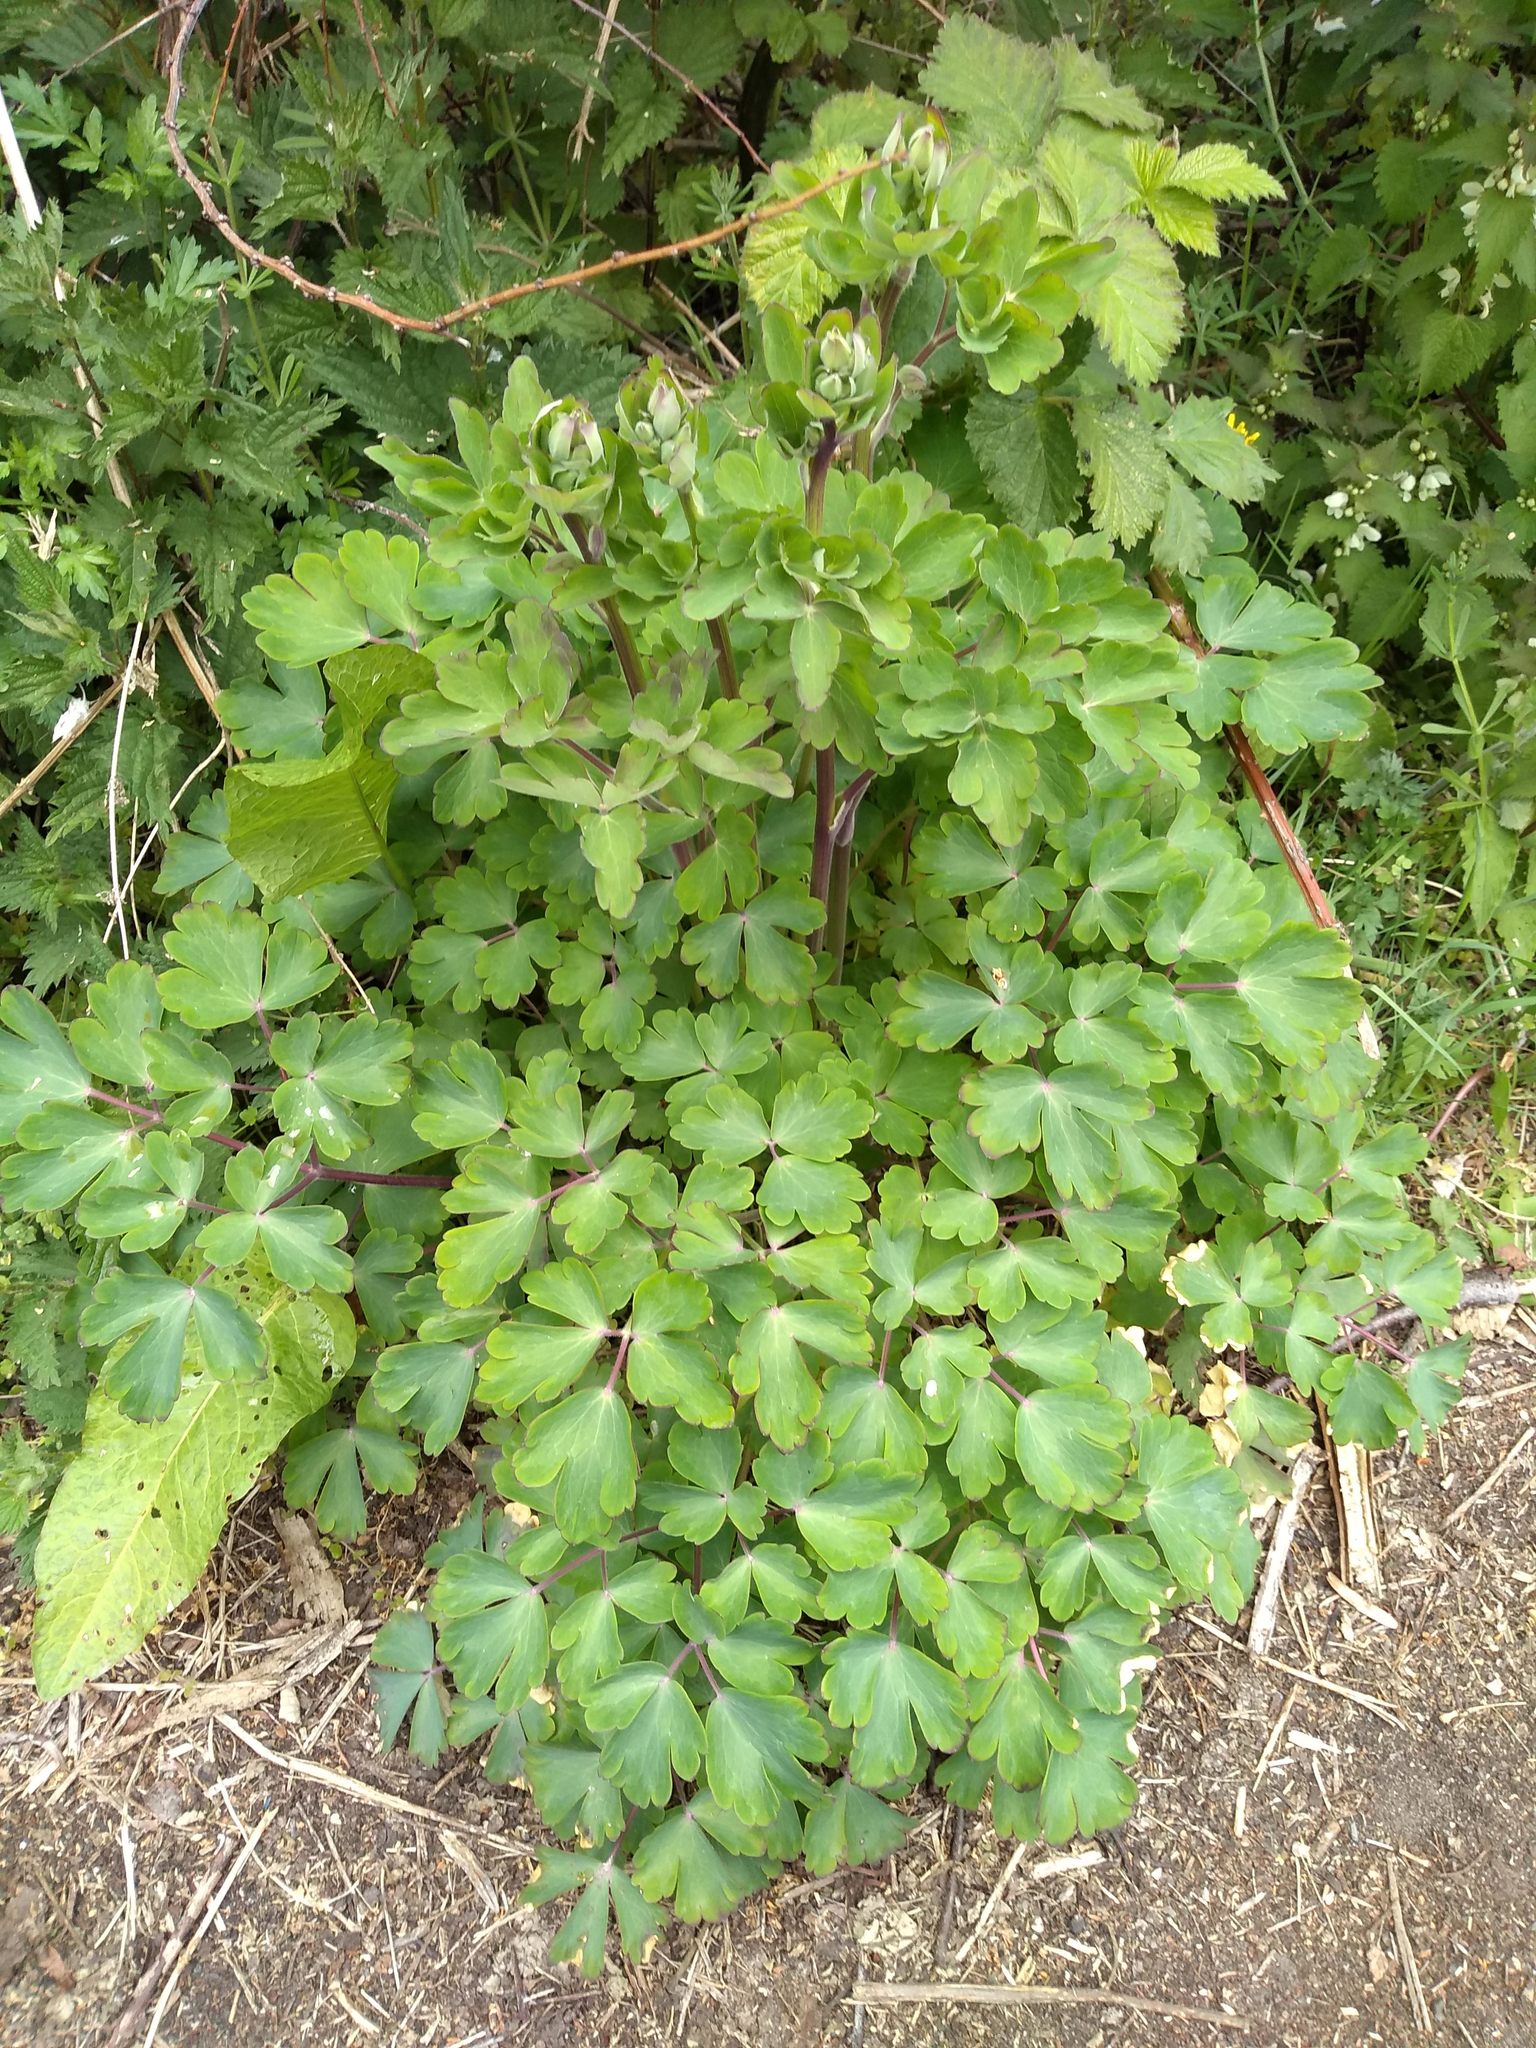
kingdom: Plantae
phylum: Tracheophyta
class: Magnoliopsida
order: Ranunculales
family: Ranunculaceae
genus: Aquilegia
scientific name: Aquilegia vulgaris
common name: Columbine
